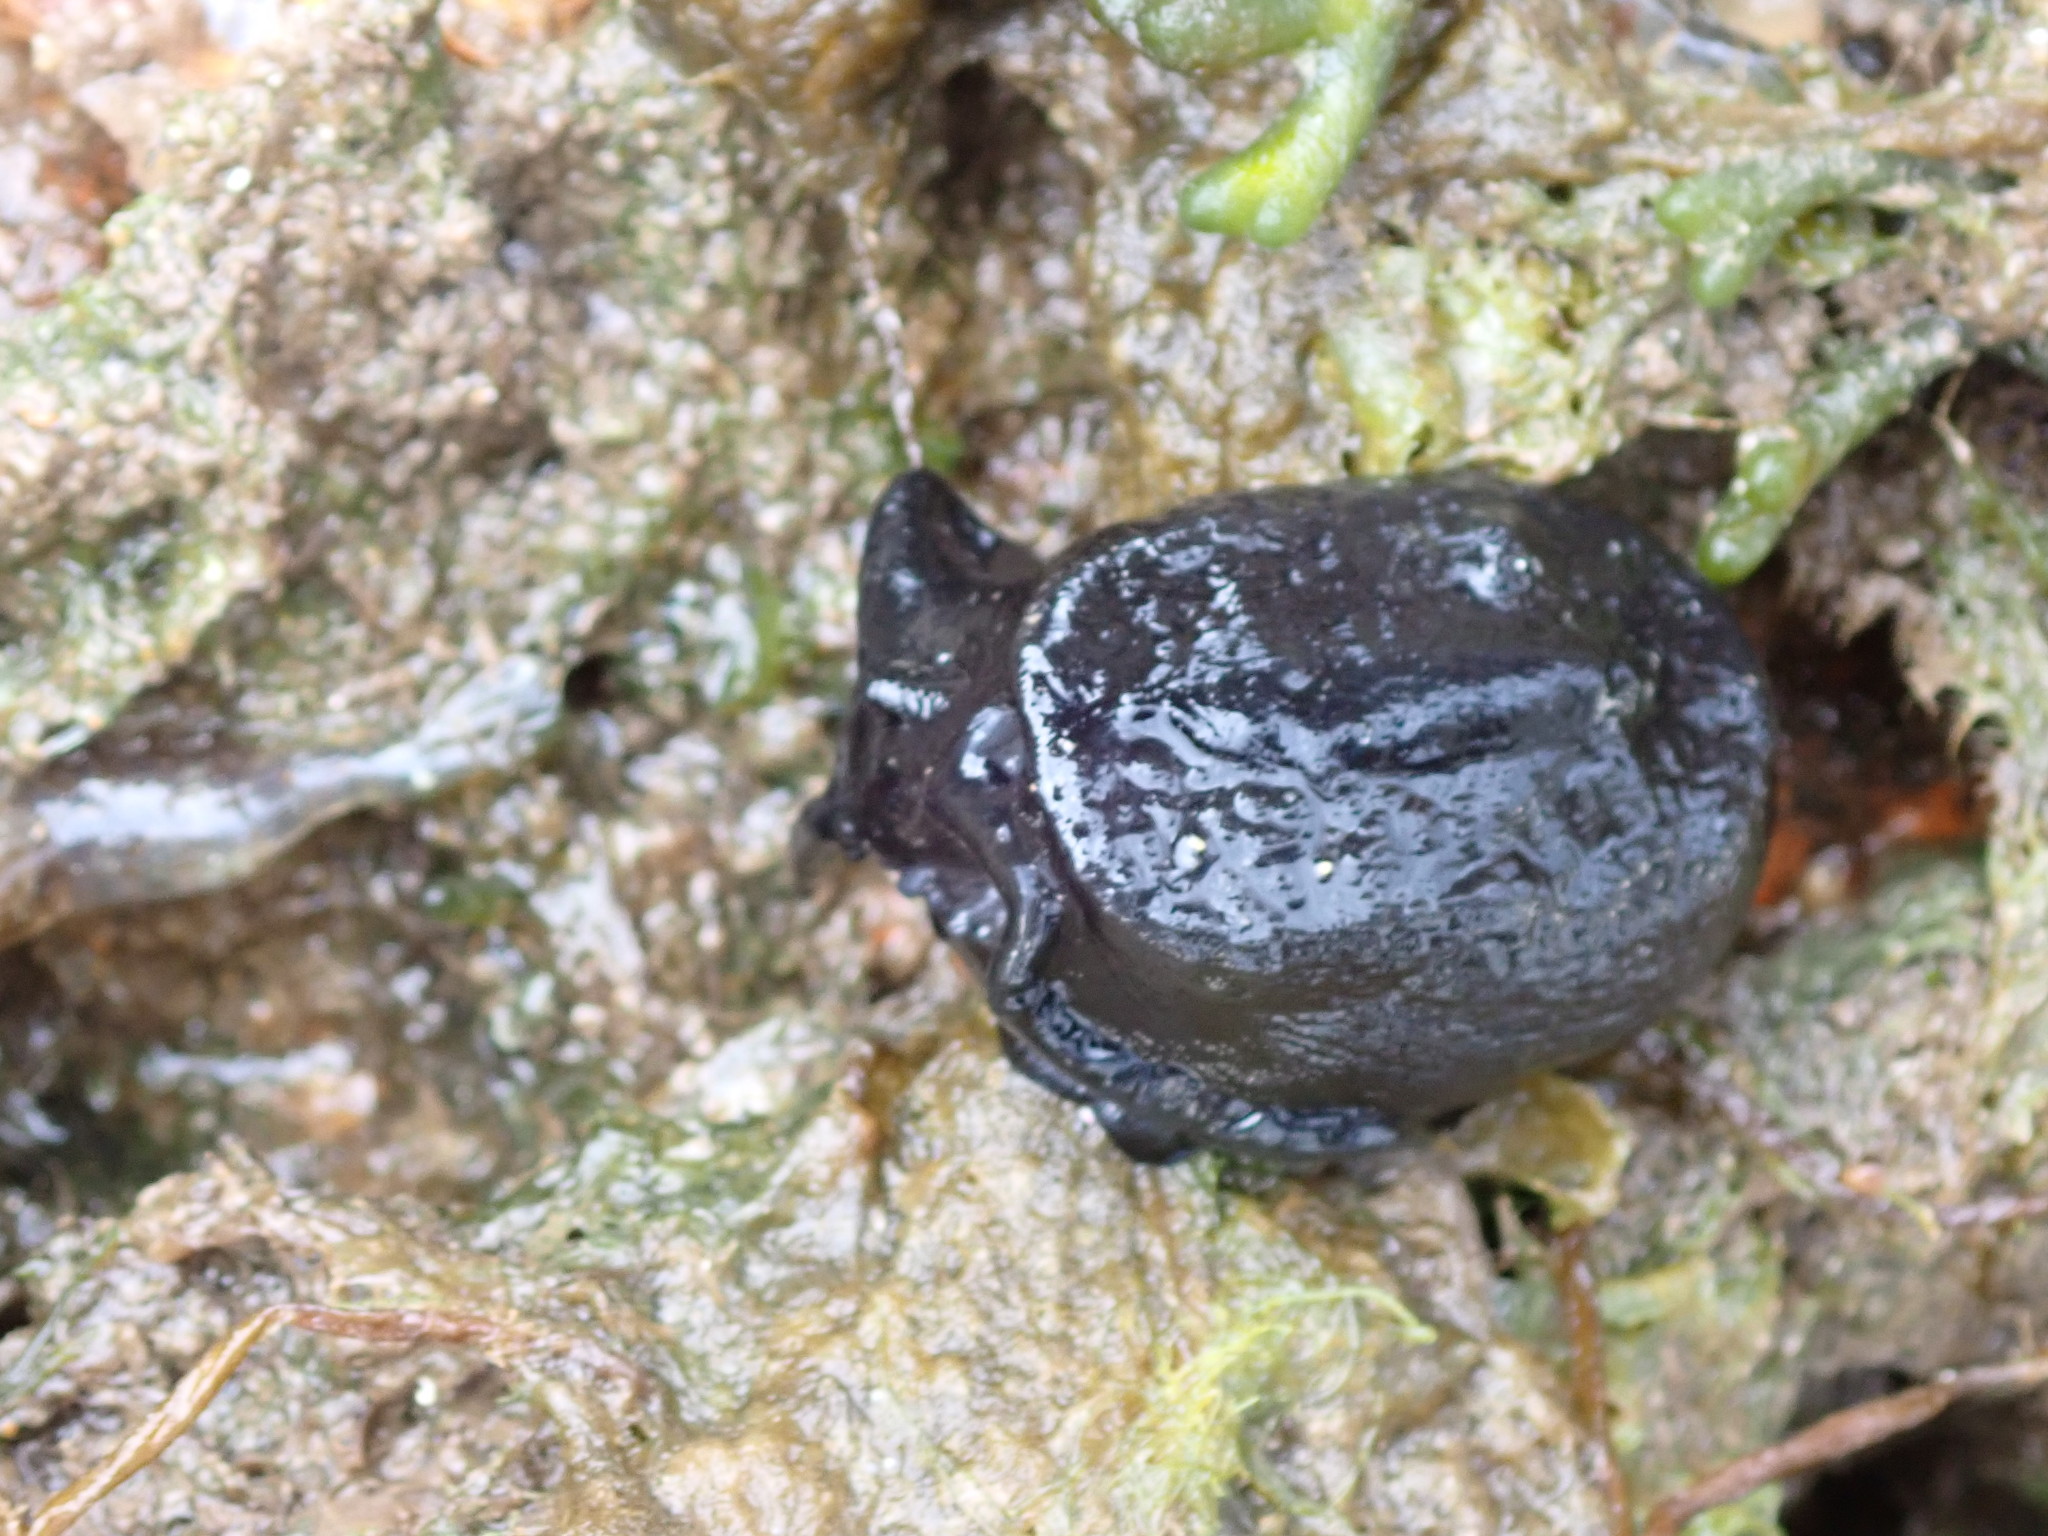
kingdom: Animalia
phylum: Mollusca
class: Gastropoda
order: Lepetellida
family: Fissurellidae
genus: Scutus
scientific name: Scutus antipodes
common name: Duckbill shell
